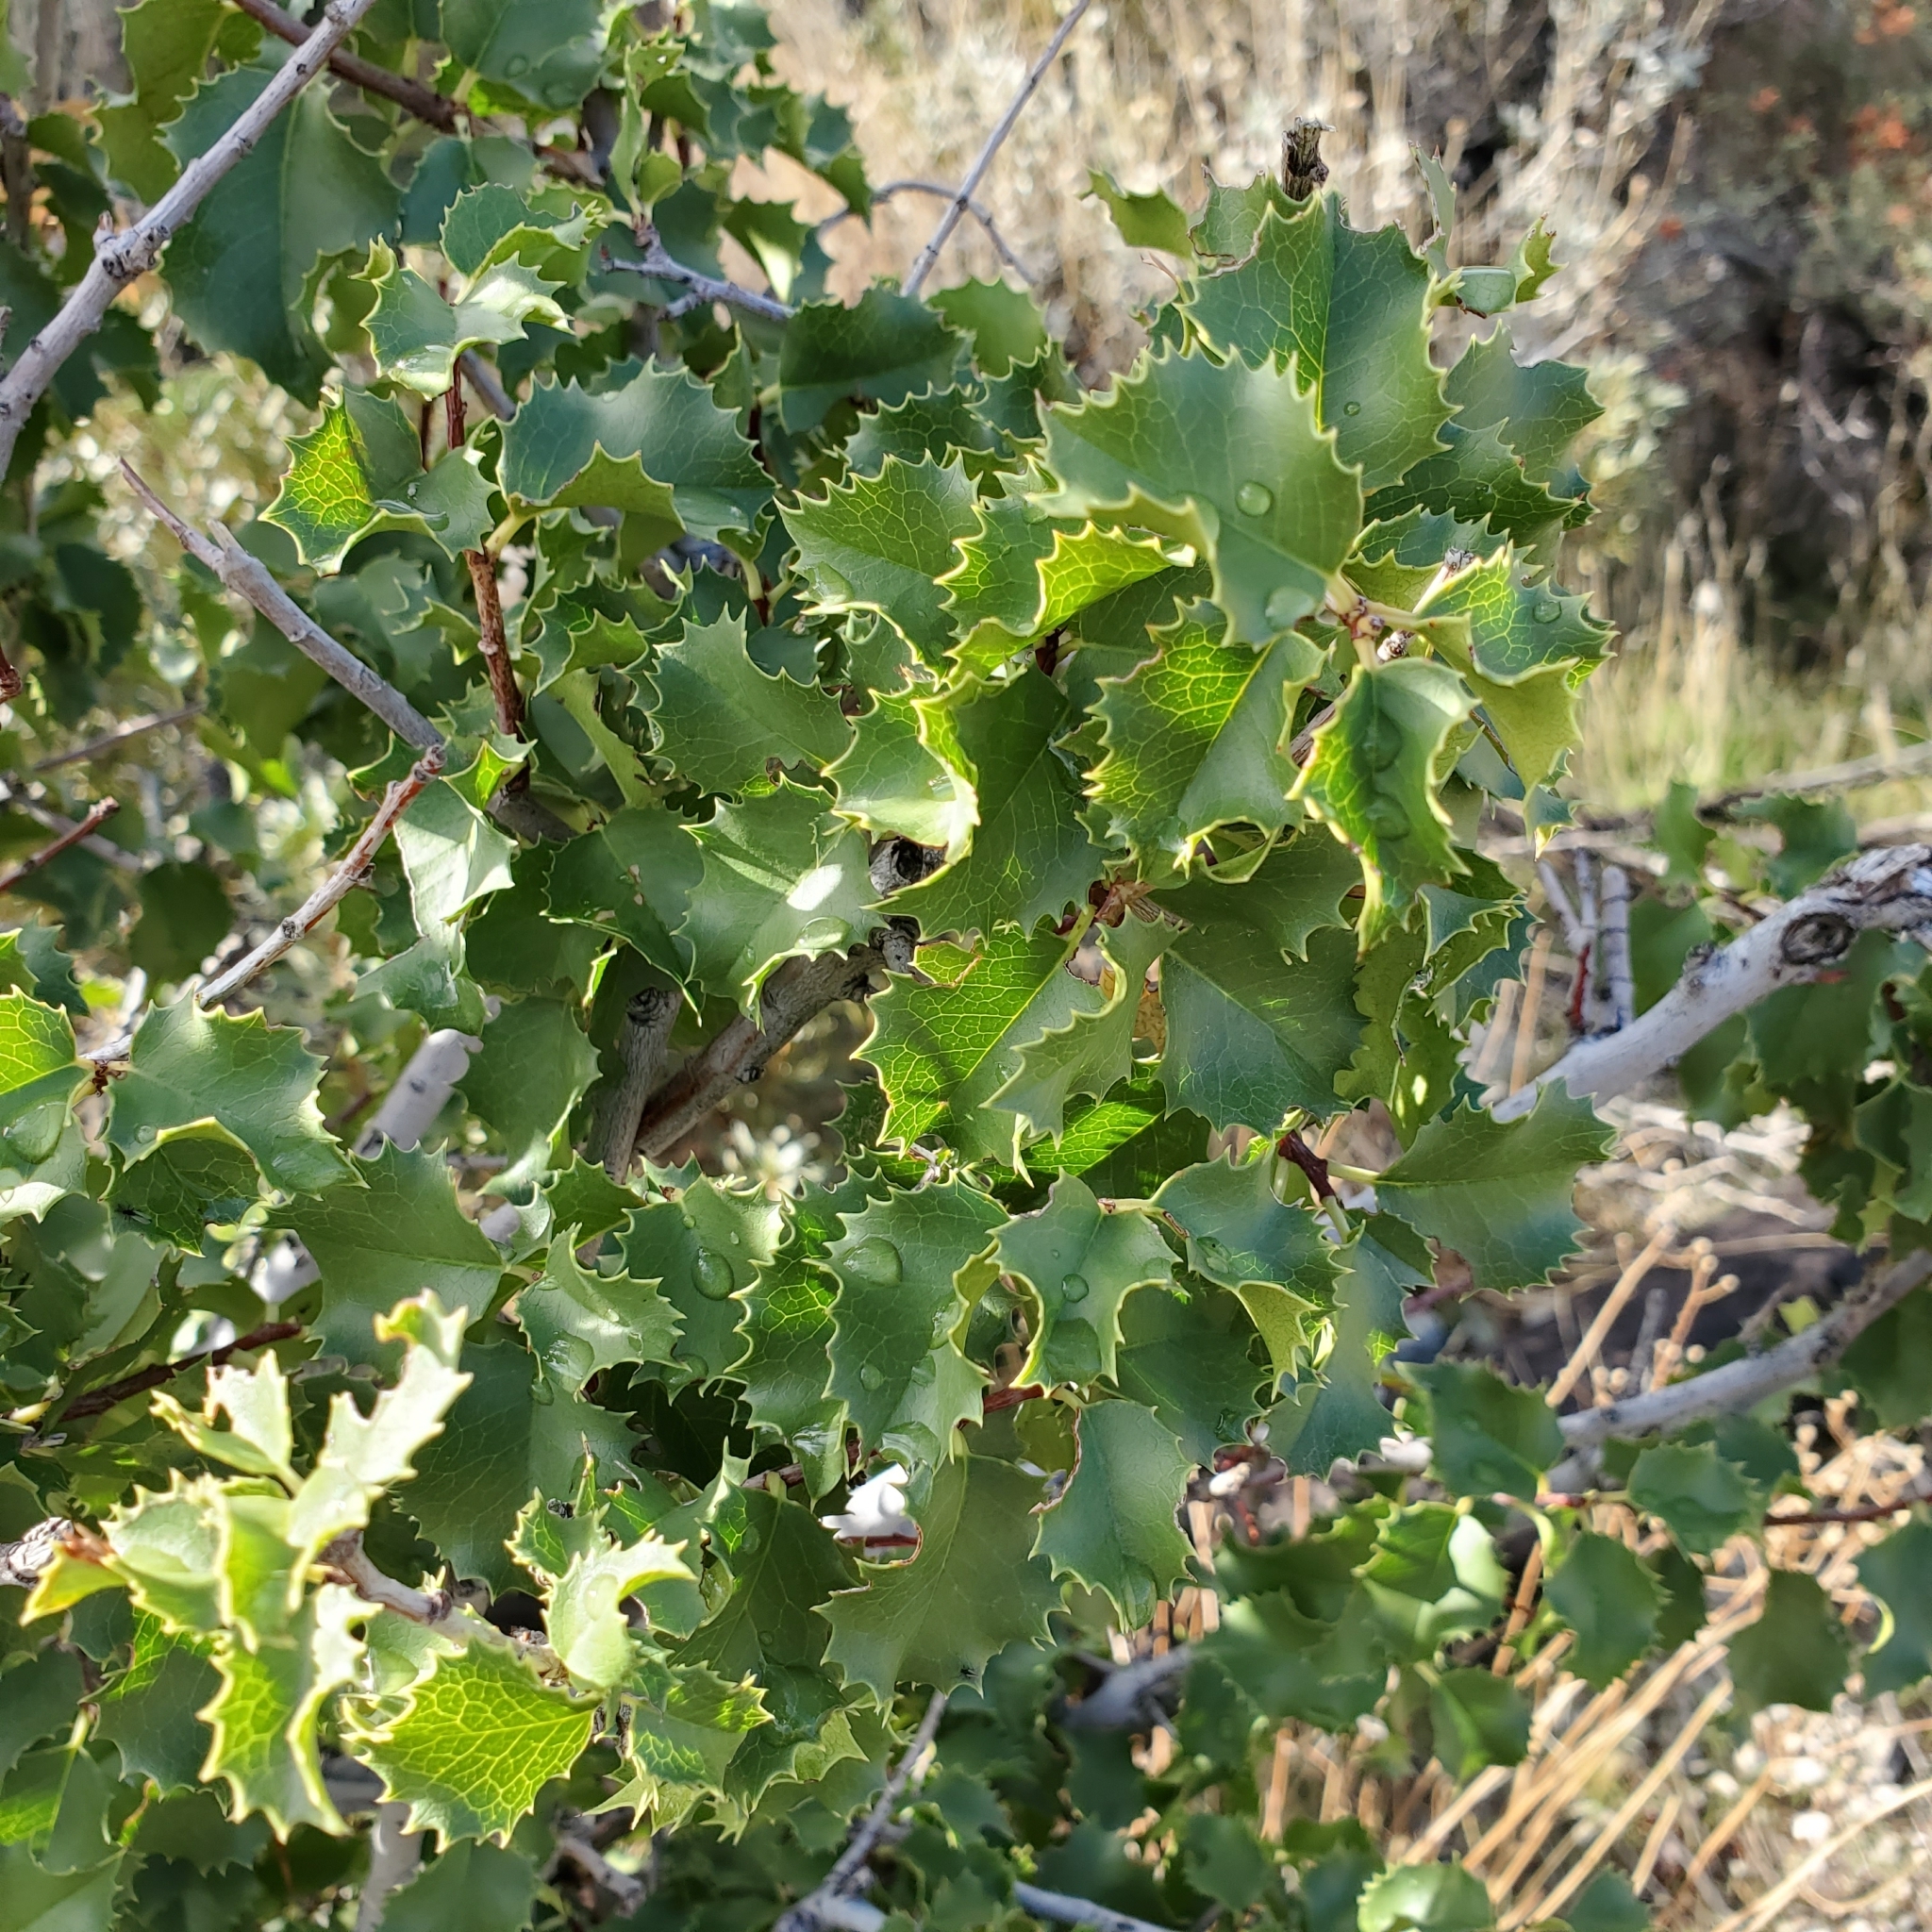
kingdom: Plantae
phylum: Tracheophyta
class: Magnoliopsida
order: Rosales
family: Rosaceae
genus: Prunus
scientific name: Prunus ilicifolia
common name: Hollyleaf cherry
